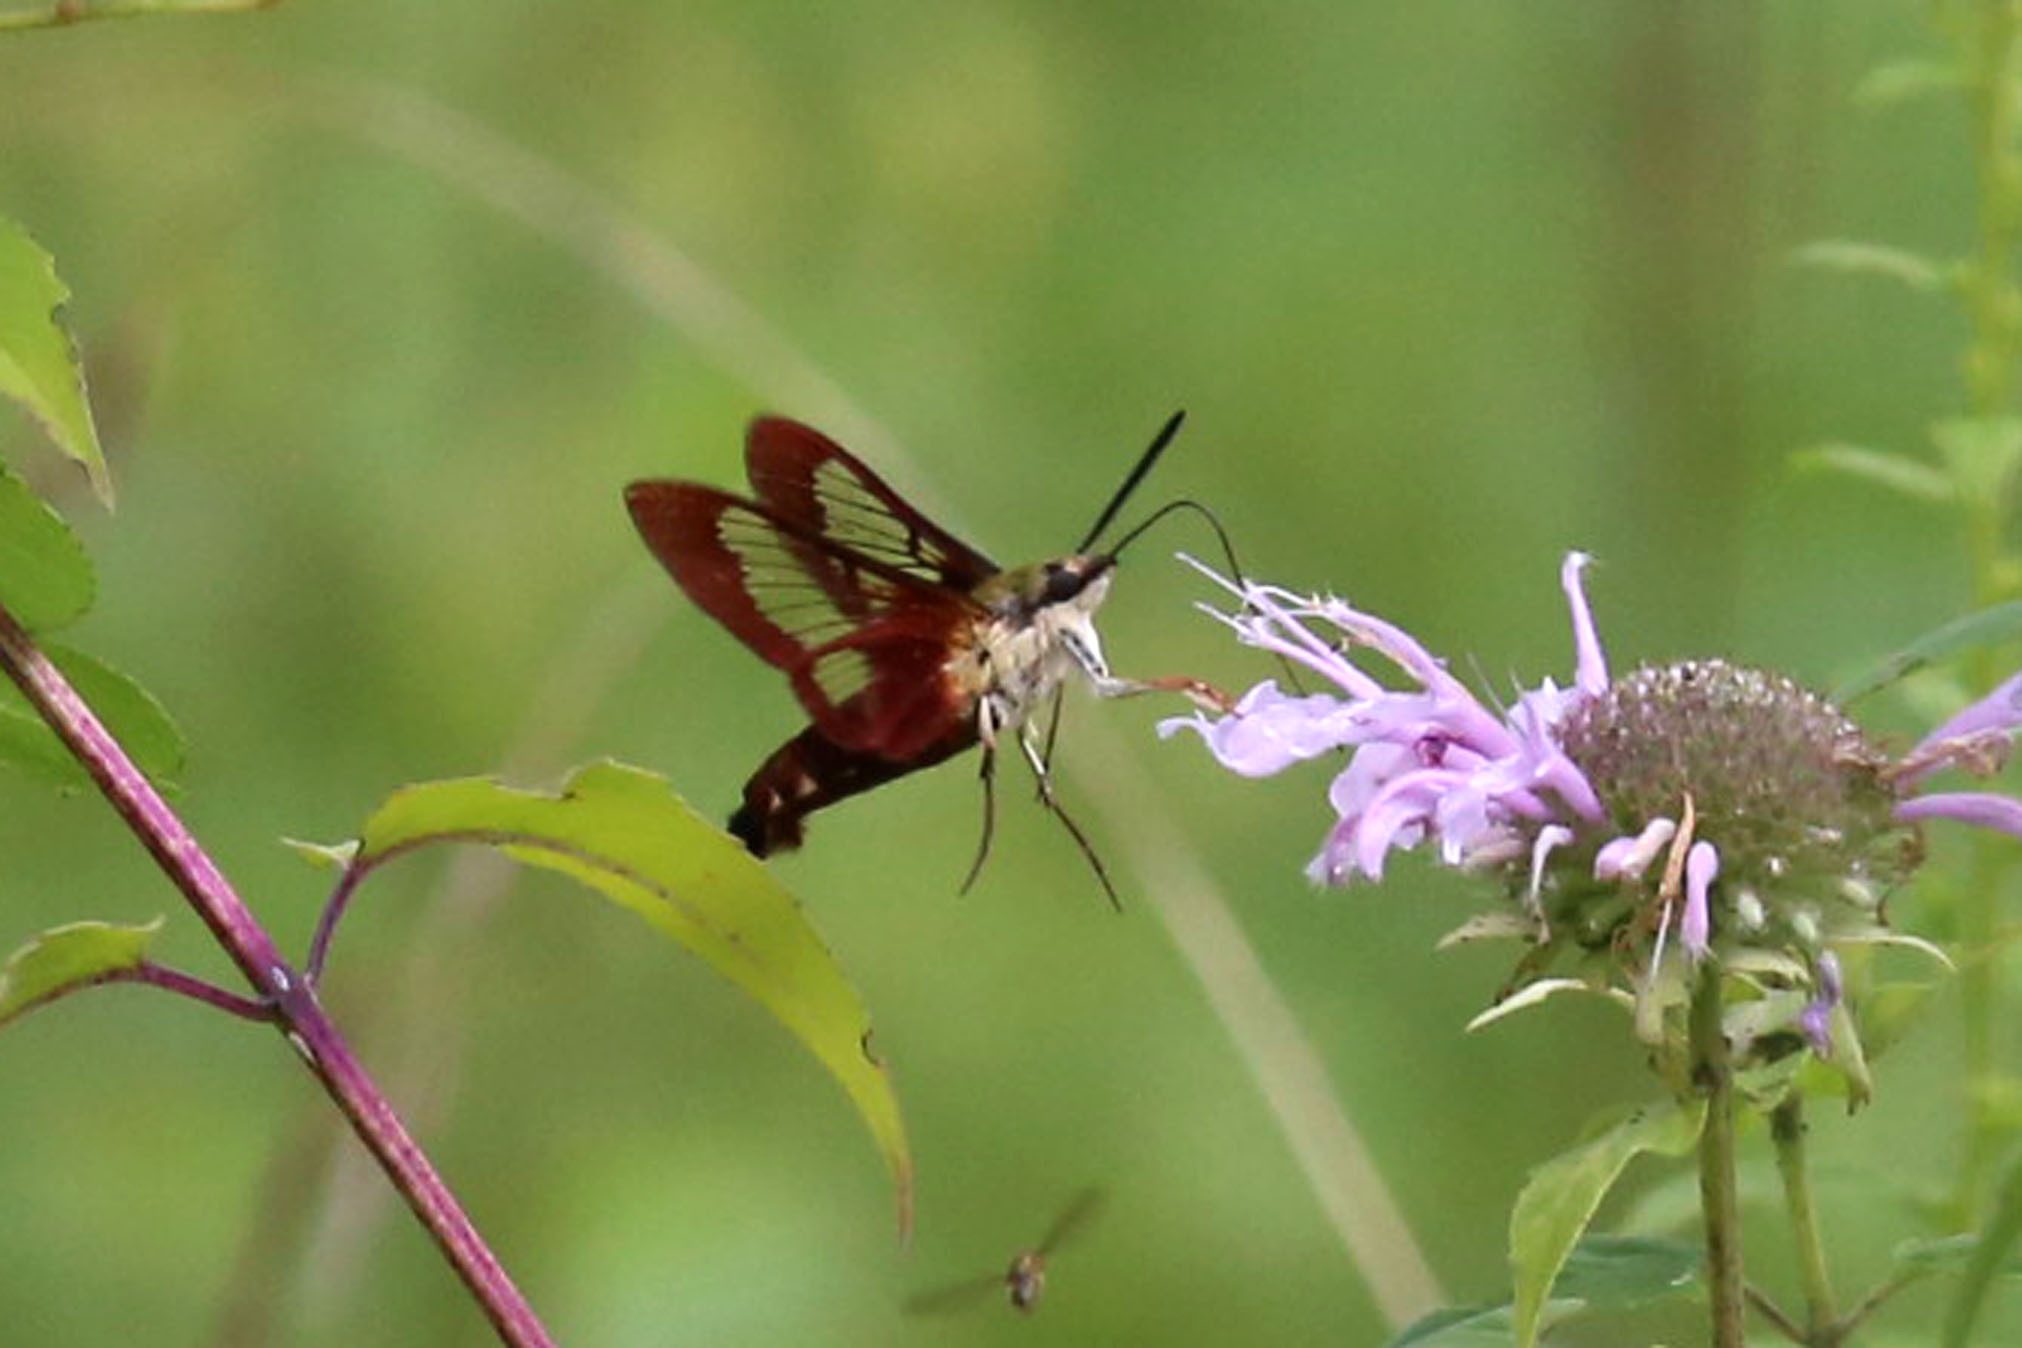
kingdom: Animalia
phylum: Arthropoda
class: Insecta
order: Lepidoptera
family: Sphingidae
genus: Hemaris
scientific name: Hemaris thysbe
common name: Common clear-wing
